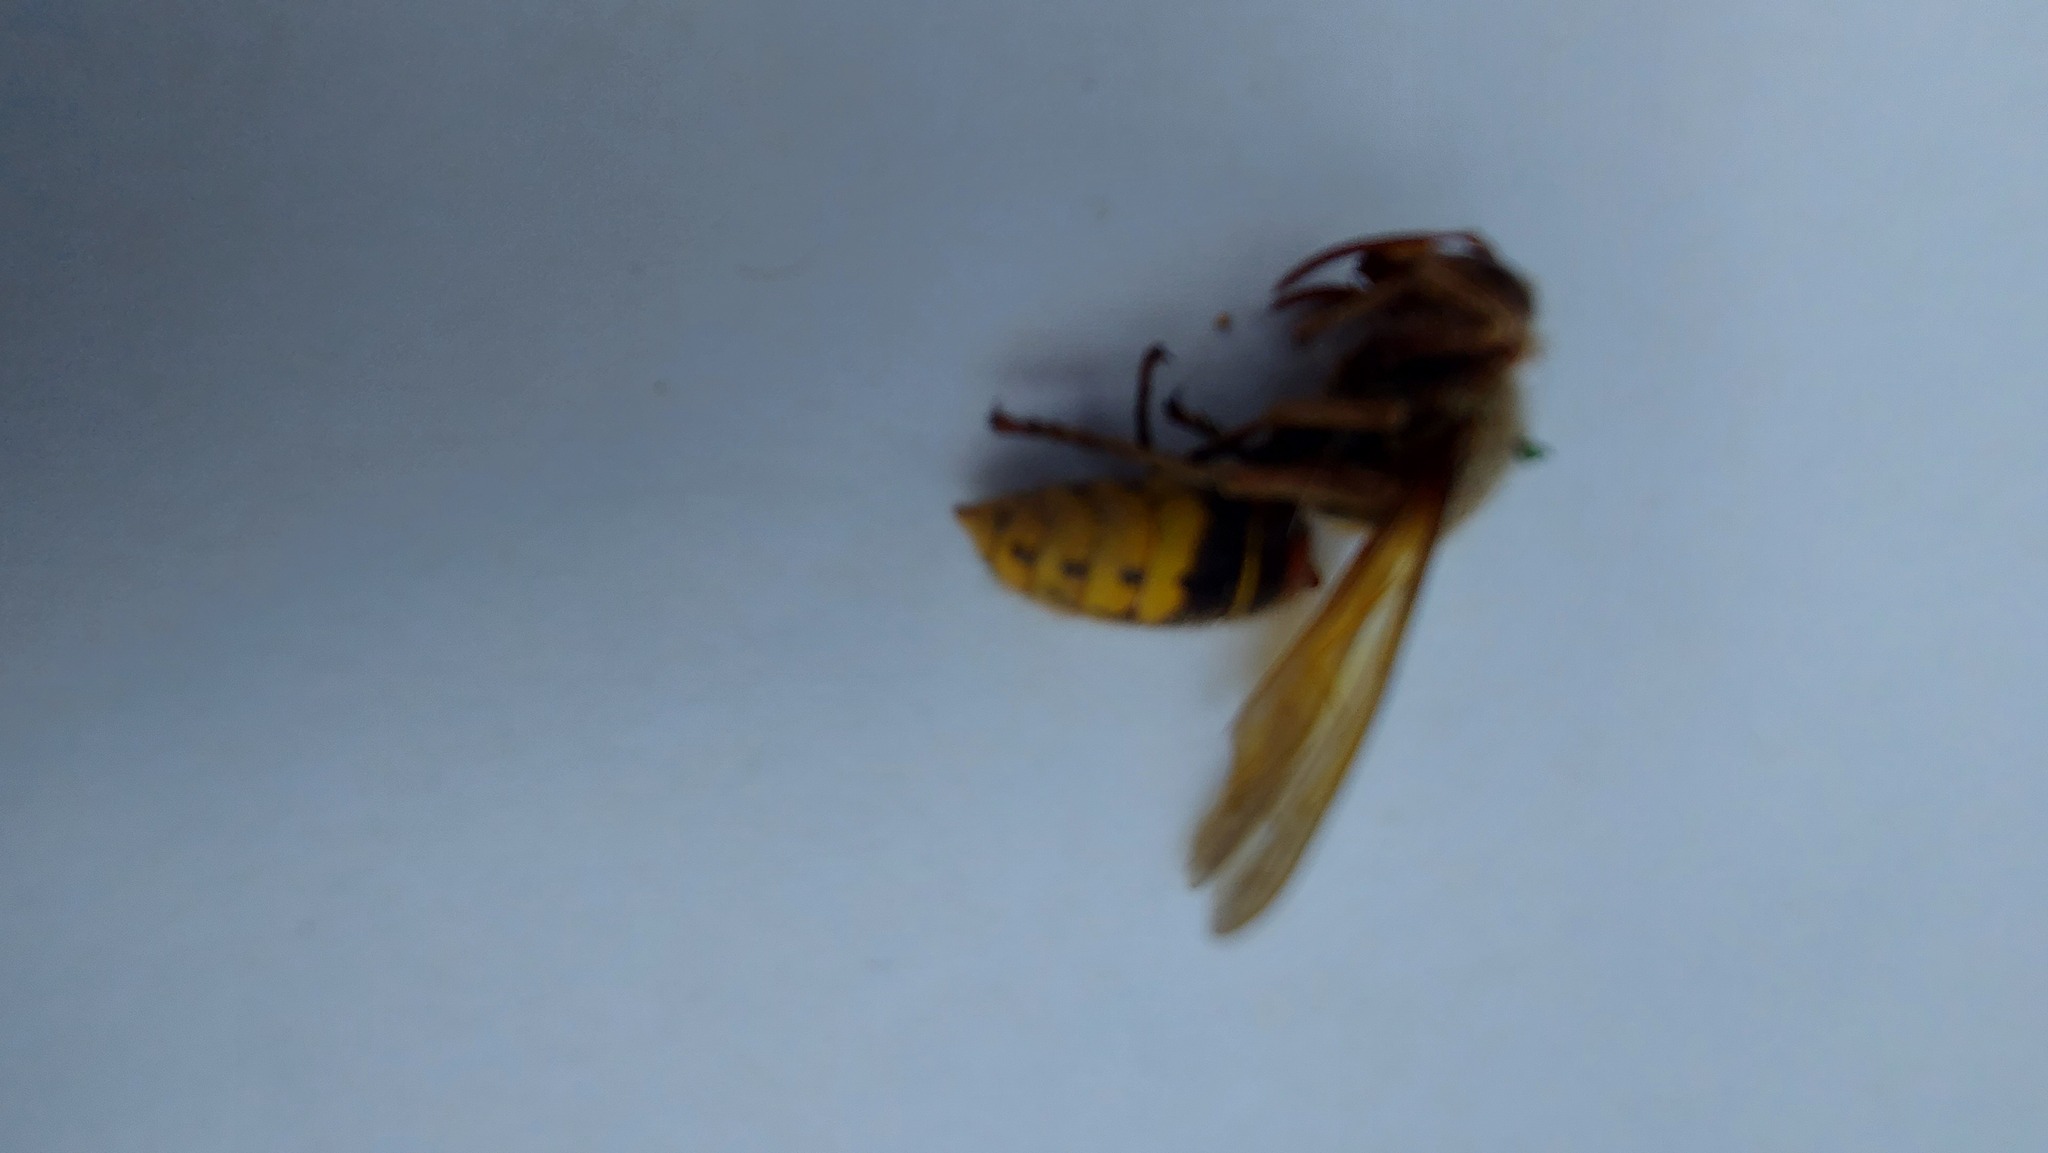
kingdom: Animalia
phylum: Arthropoda
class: Insecta
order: Hymenoptera
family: Vespidae
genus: Vespa
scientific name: Vespa crabro
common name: Hornet
